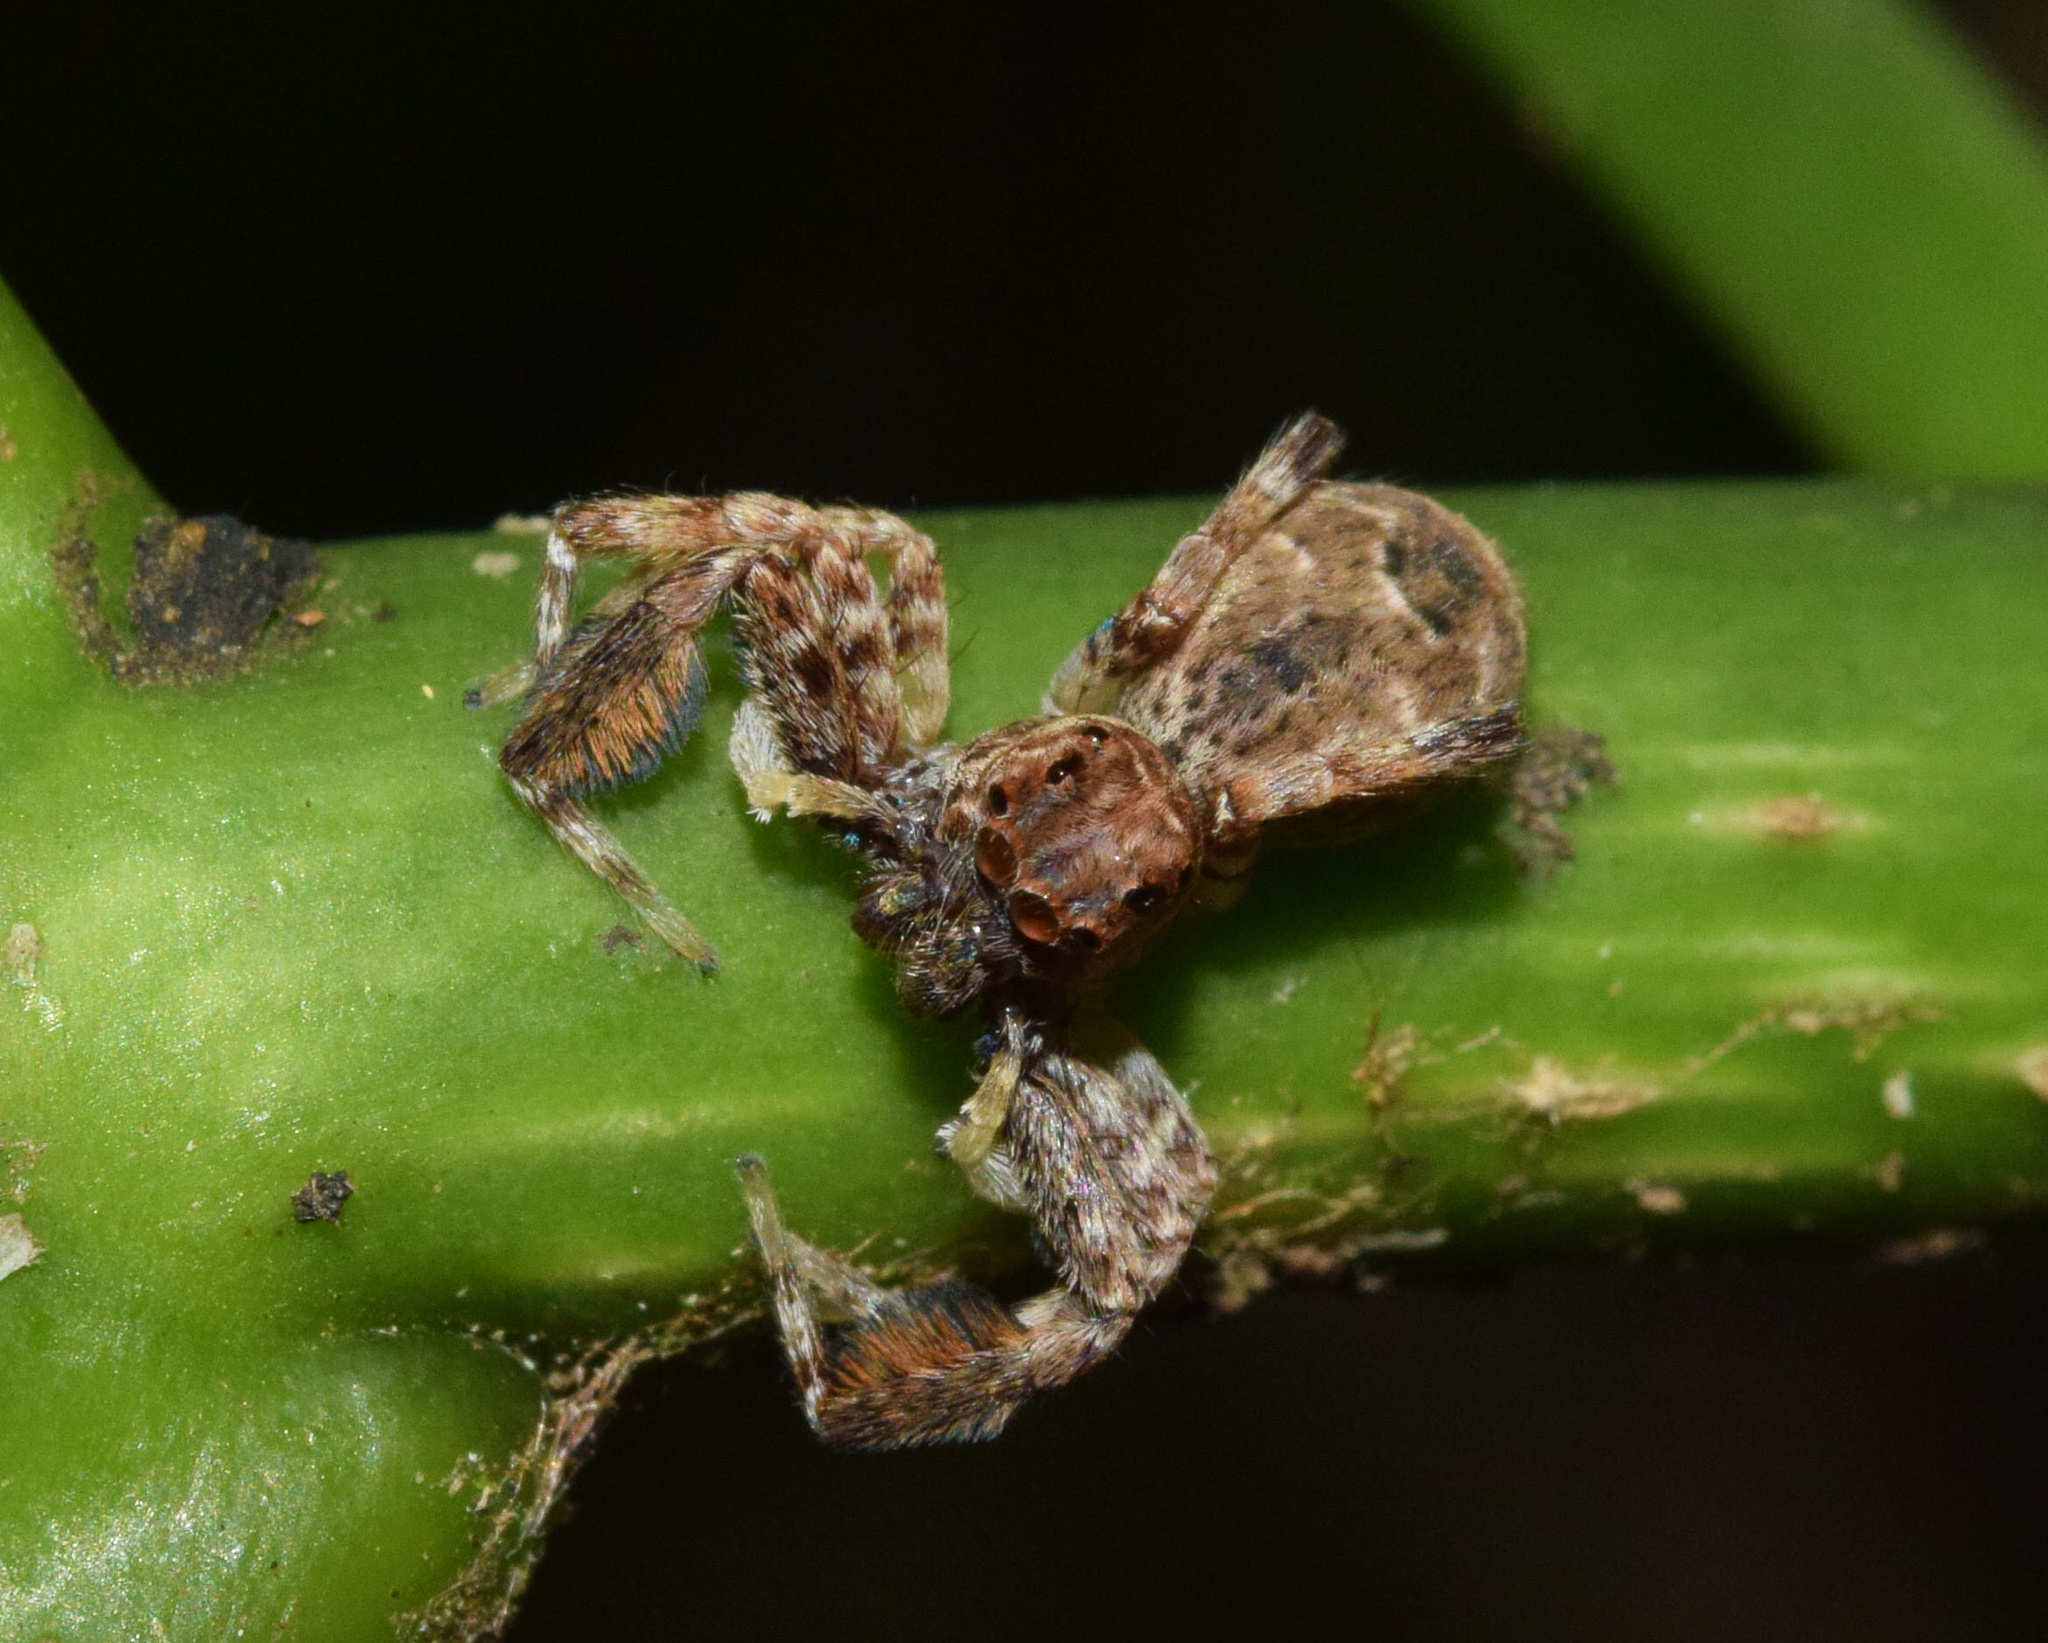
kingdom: Animalia
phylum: Arthropoda
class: Arachnida
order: Araneae
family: Salticidae
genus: Veissella
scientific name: Veissella durbani
